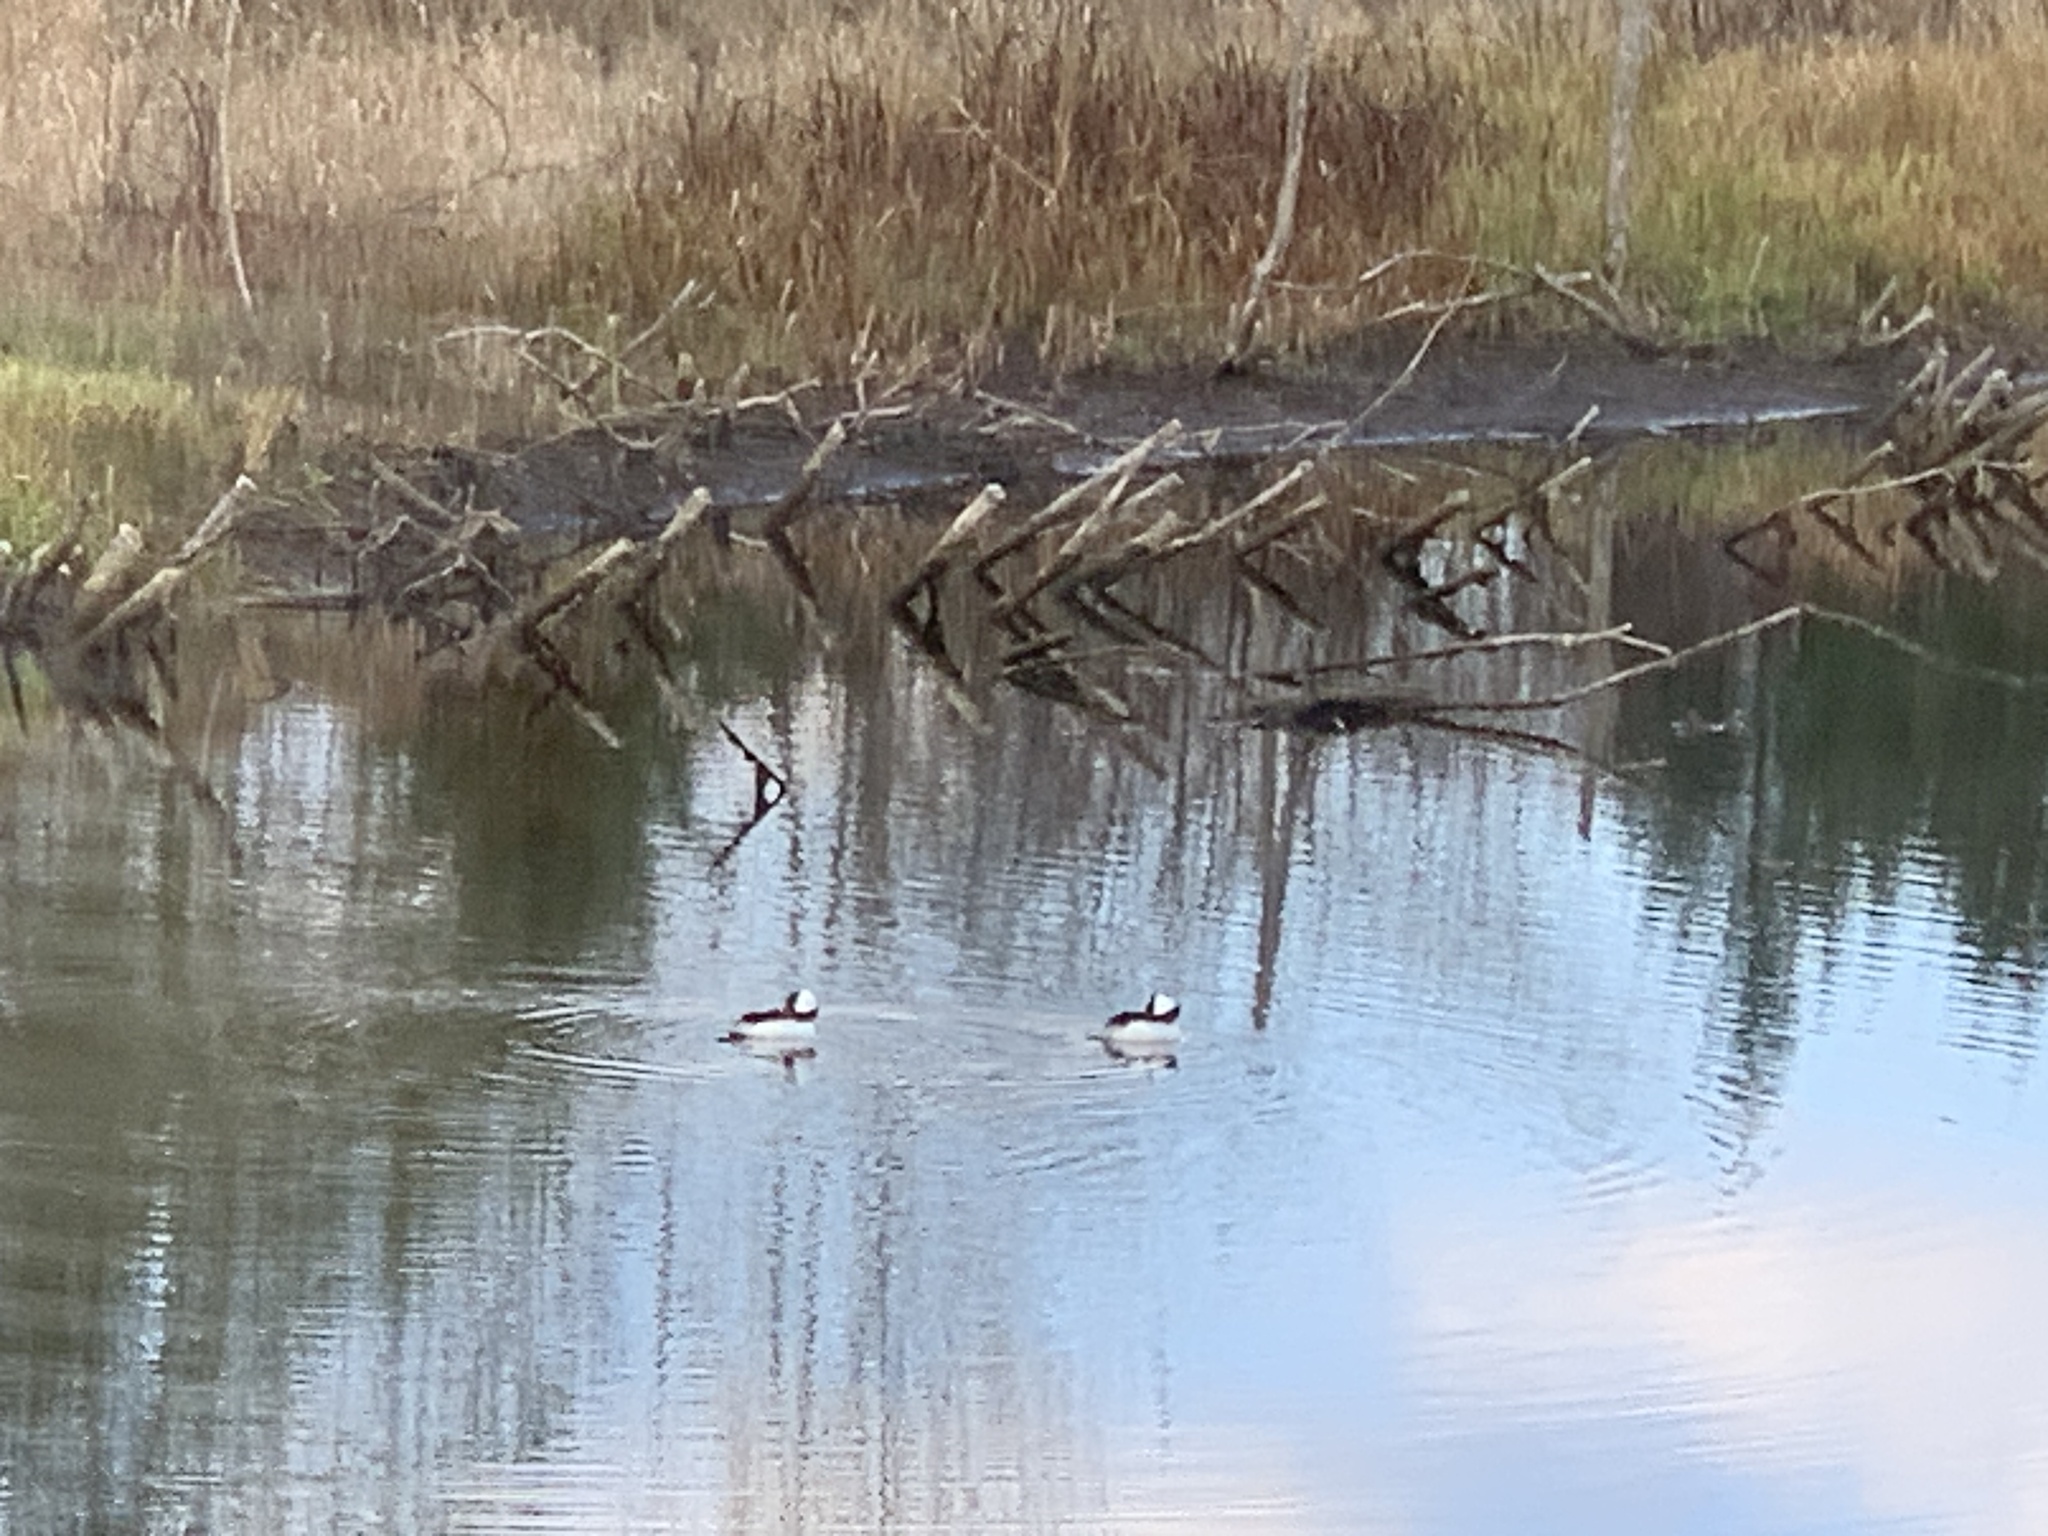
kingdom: Animalia
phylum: Chordata
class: Aves
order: Anseriformes
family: Anatidae
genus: Bucephala
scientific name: Bucephala albeola
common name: Bufflehead
